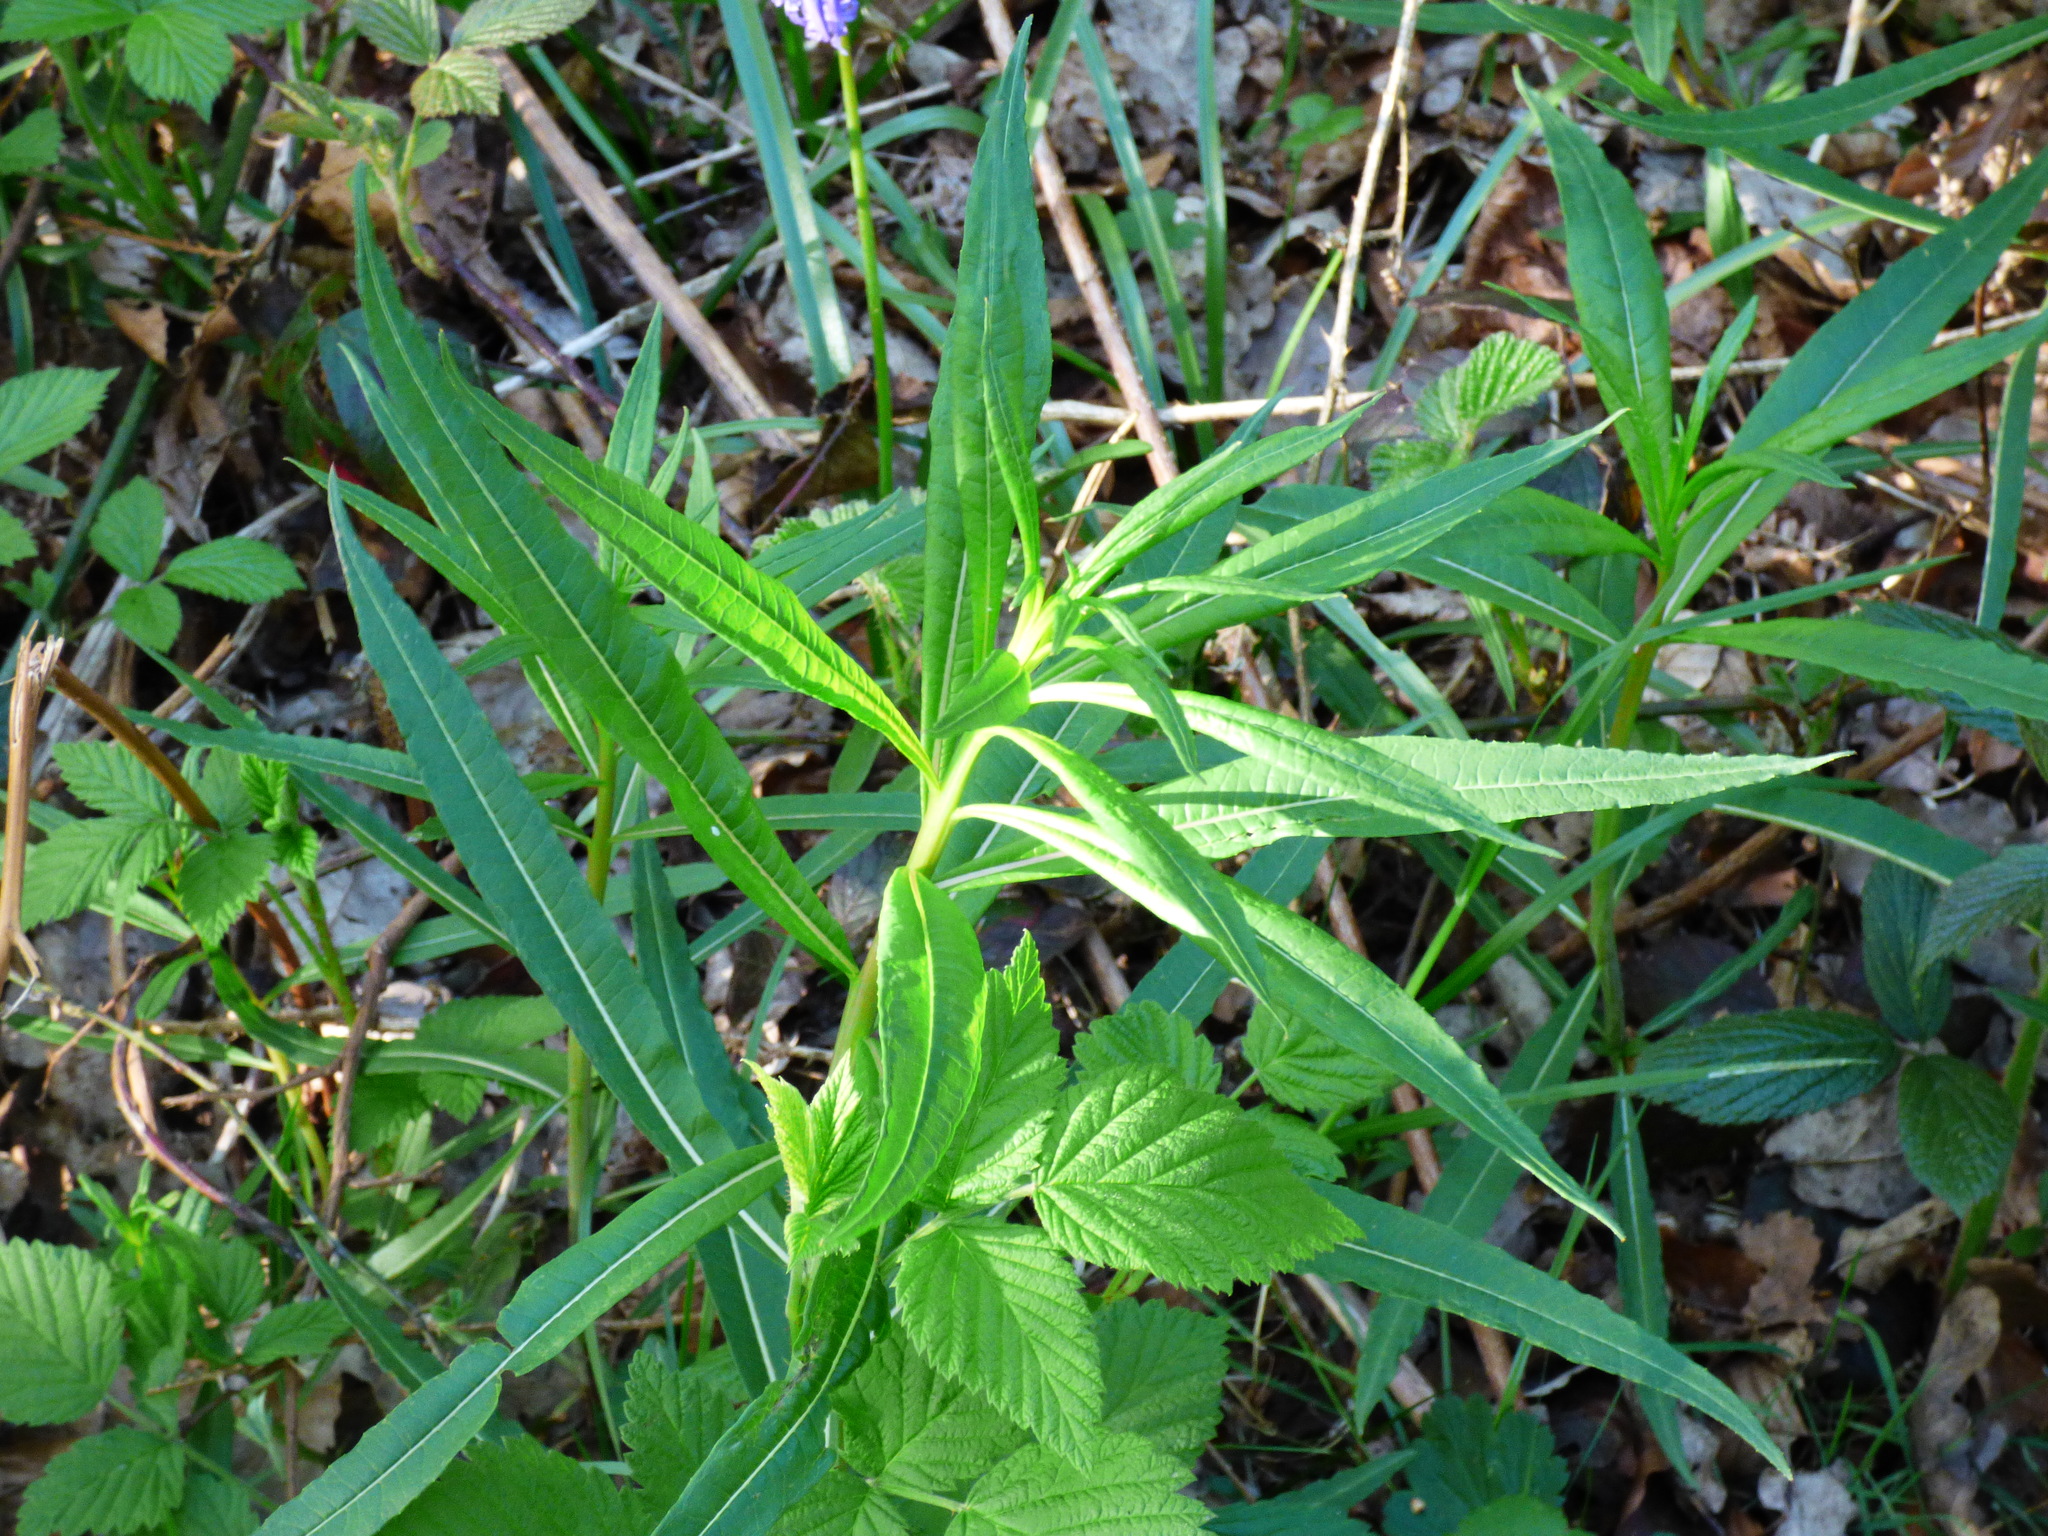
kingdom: Plantae
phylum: Tracheophyta
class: Magnoliopsida
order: Myrtales
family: Onagraceae
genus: Chamaenerion
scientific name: Chamaenerion angustifolium
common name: Fireweed
